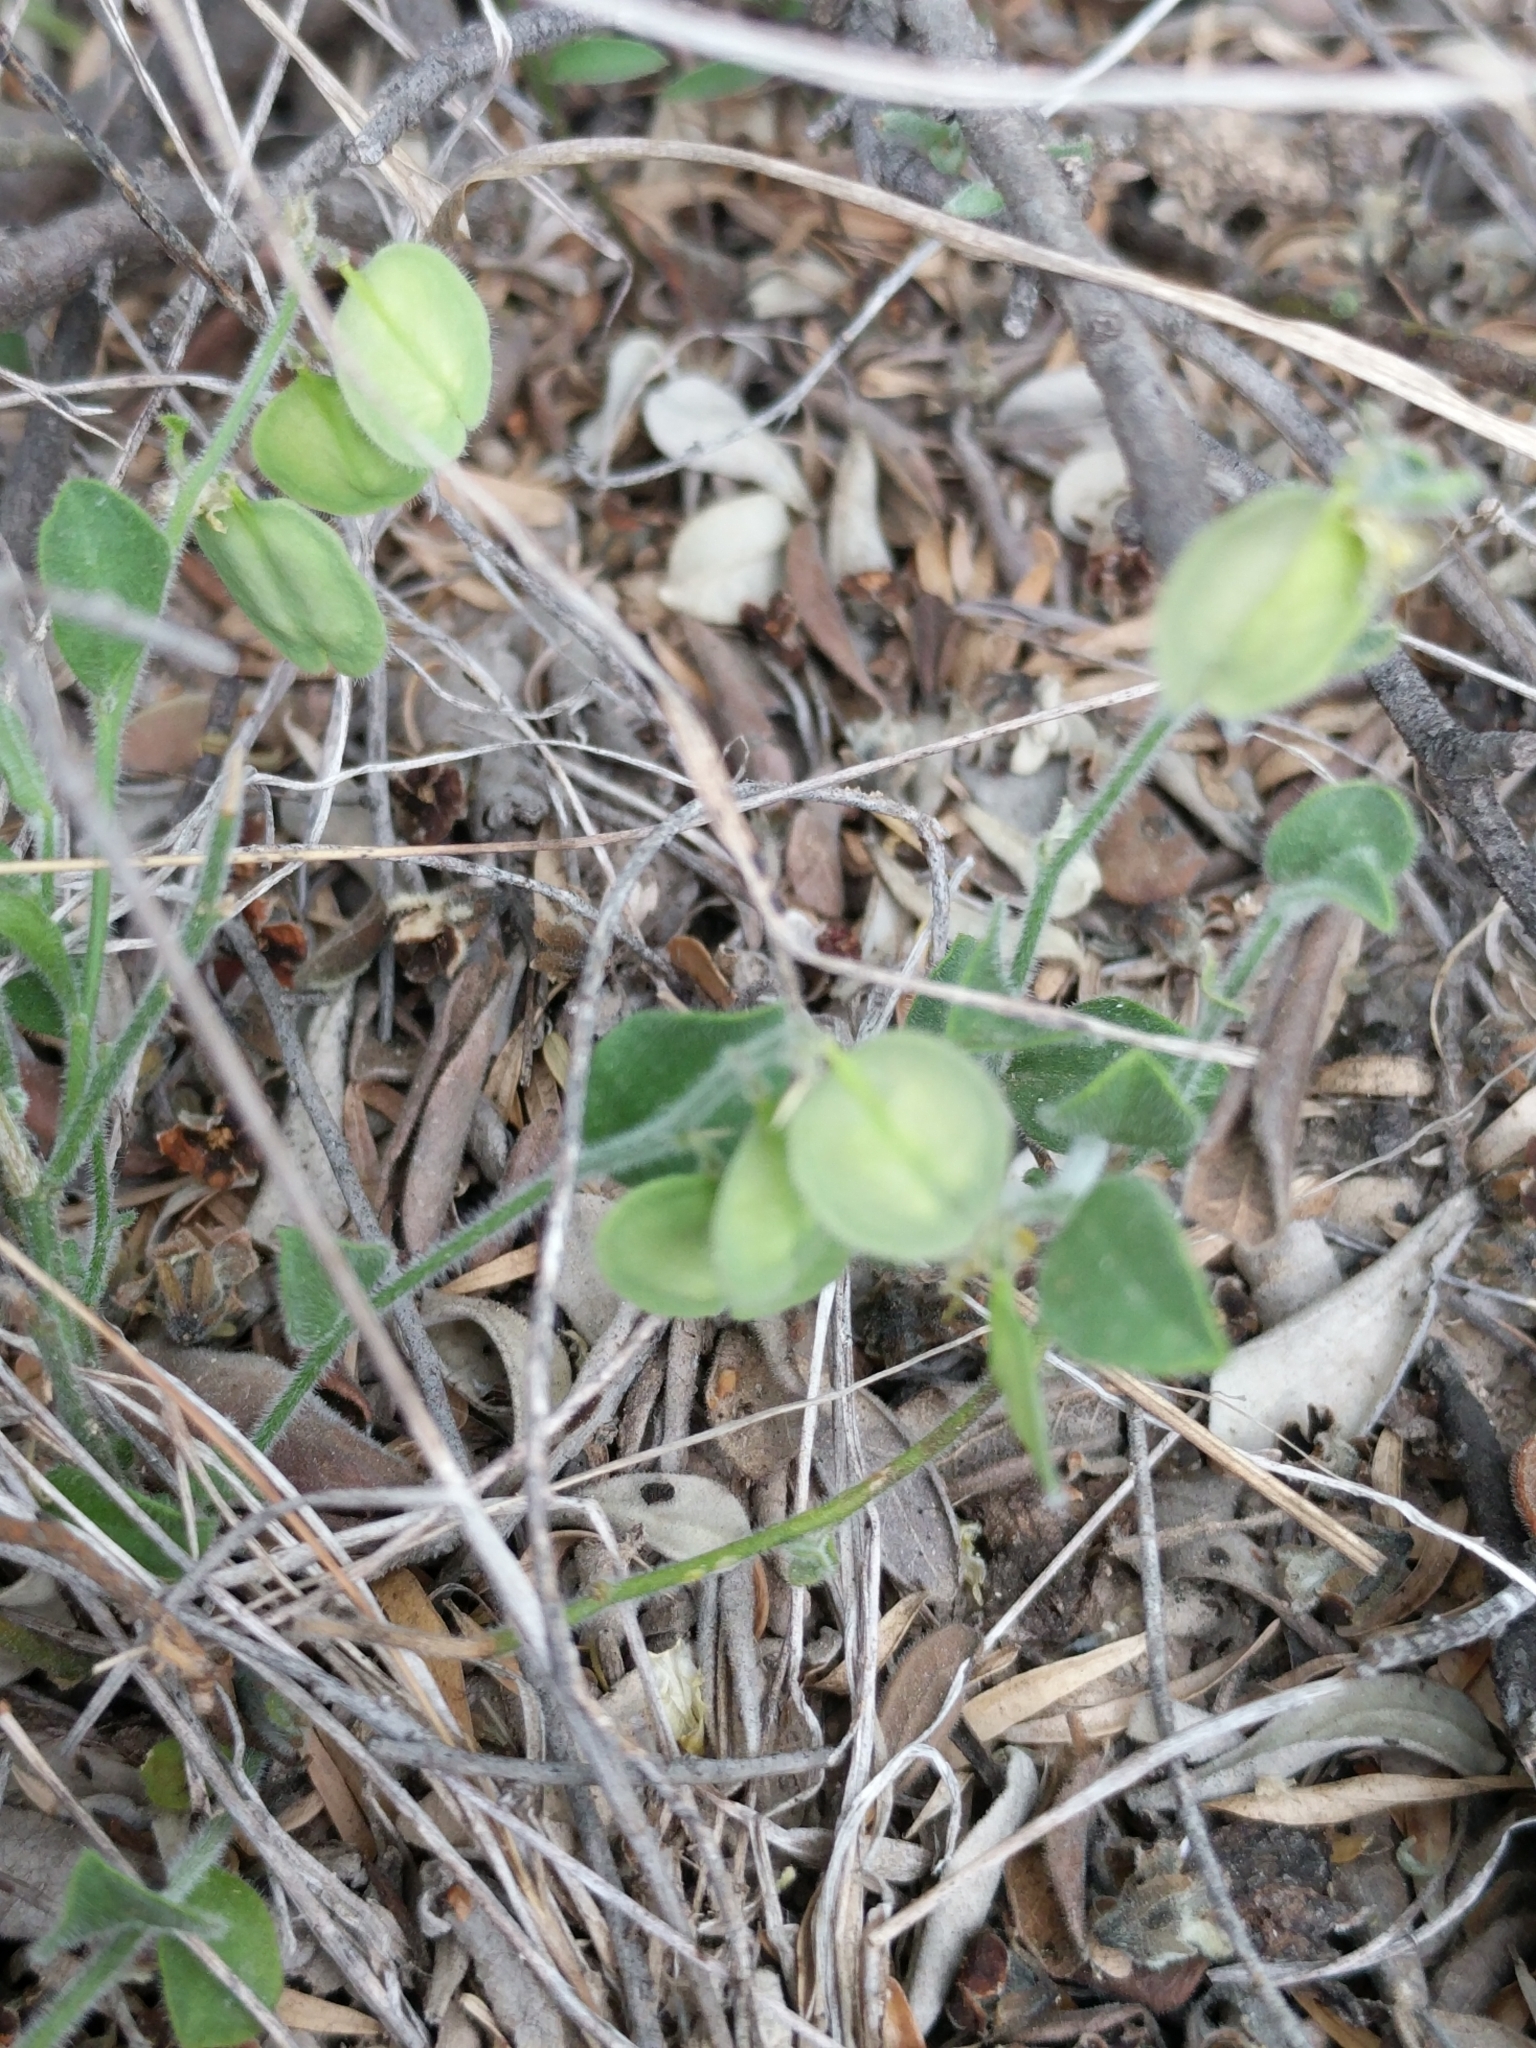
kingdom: Plantae
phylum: Tracheophyta
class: Magnoliopsida
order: Fabales
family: Polygalaceae
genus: Hebecarpa
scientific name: Hebecarpa ovatifolia
